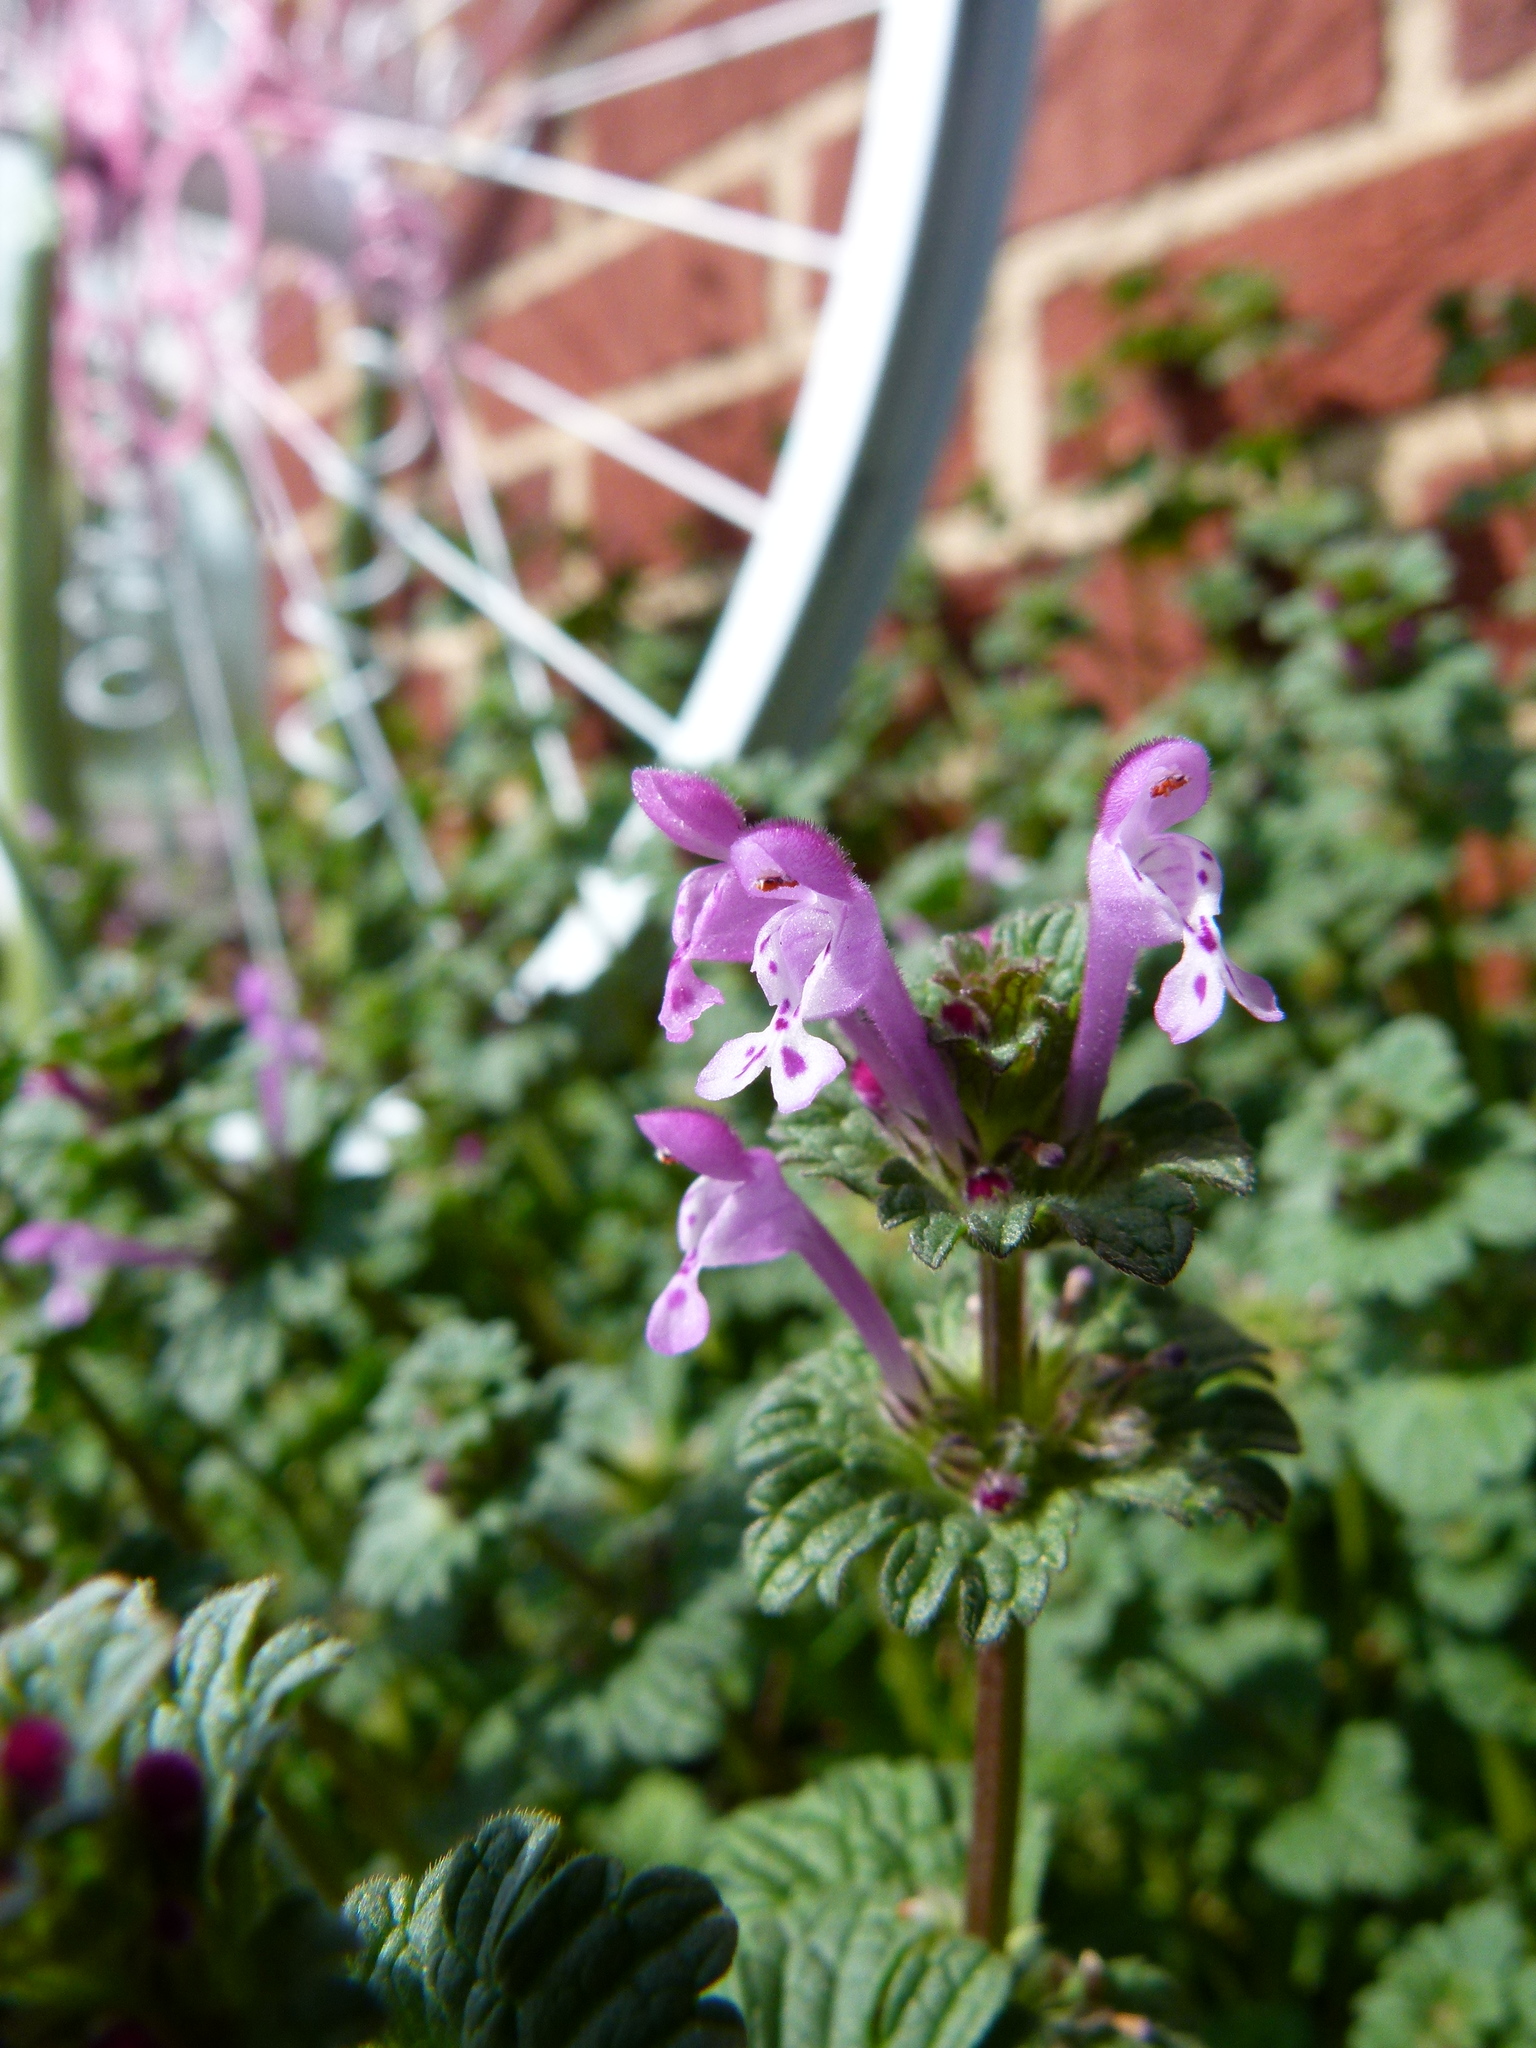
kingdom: Plantae
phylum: Tracheophyta
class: Magnoliopsida
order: Lamiales
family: Lamiaceae
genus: Lamium
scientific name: Lamium amplexicaule
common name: Henbit dead-nettle
